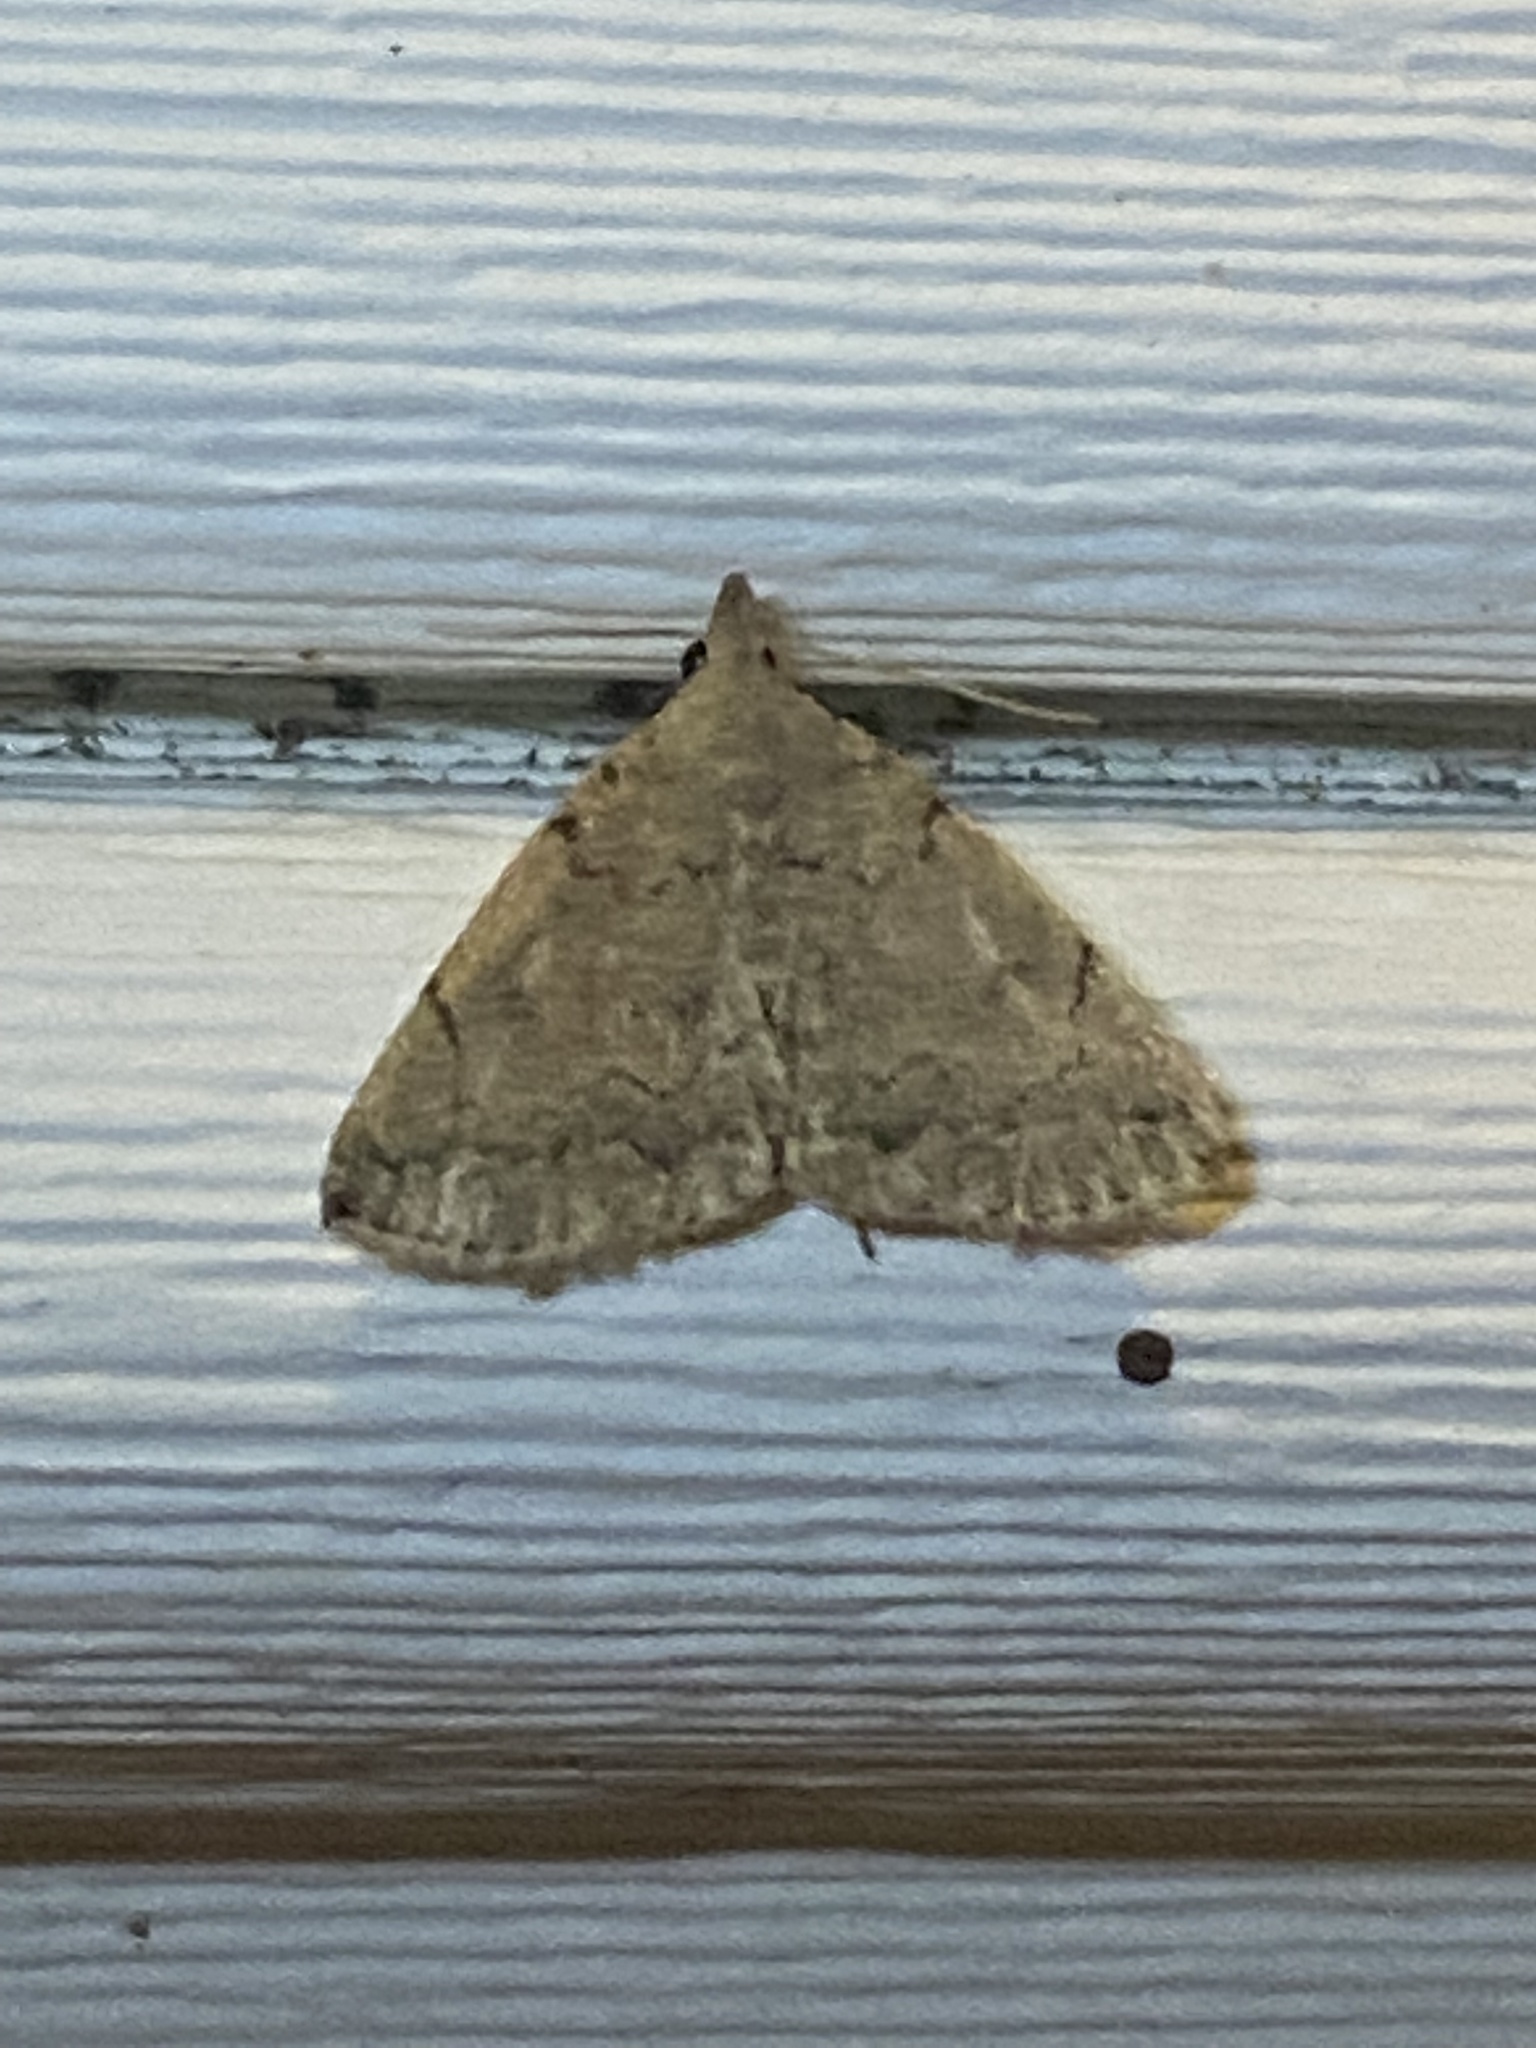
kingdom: Animalia
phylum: Arthropoda
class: Insecta
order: Lepidoptera
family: Erebidae
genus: Zanclognatha
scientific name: Zanclognatha theralis
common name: Flagged fan-foot
